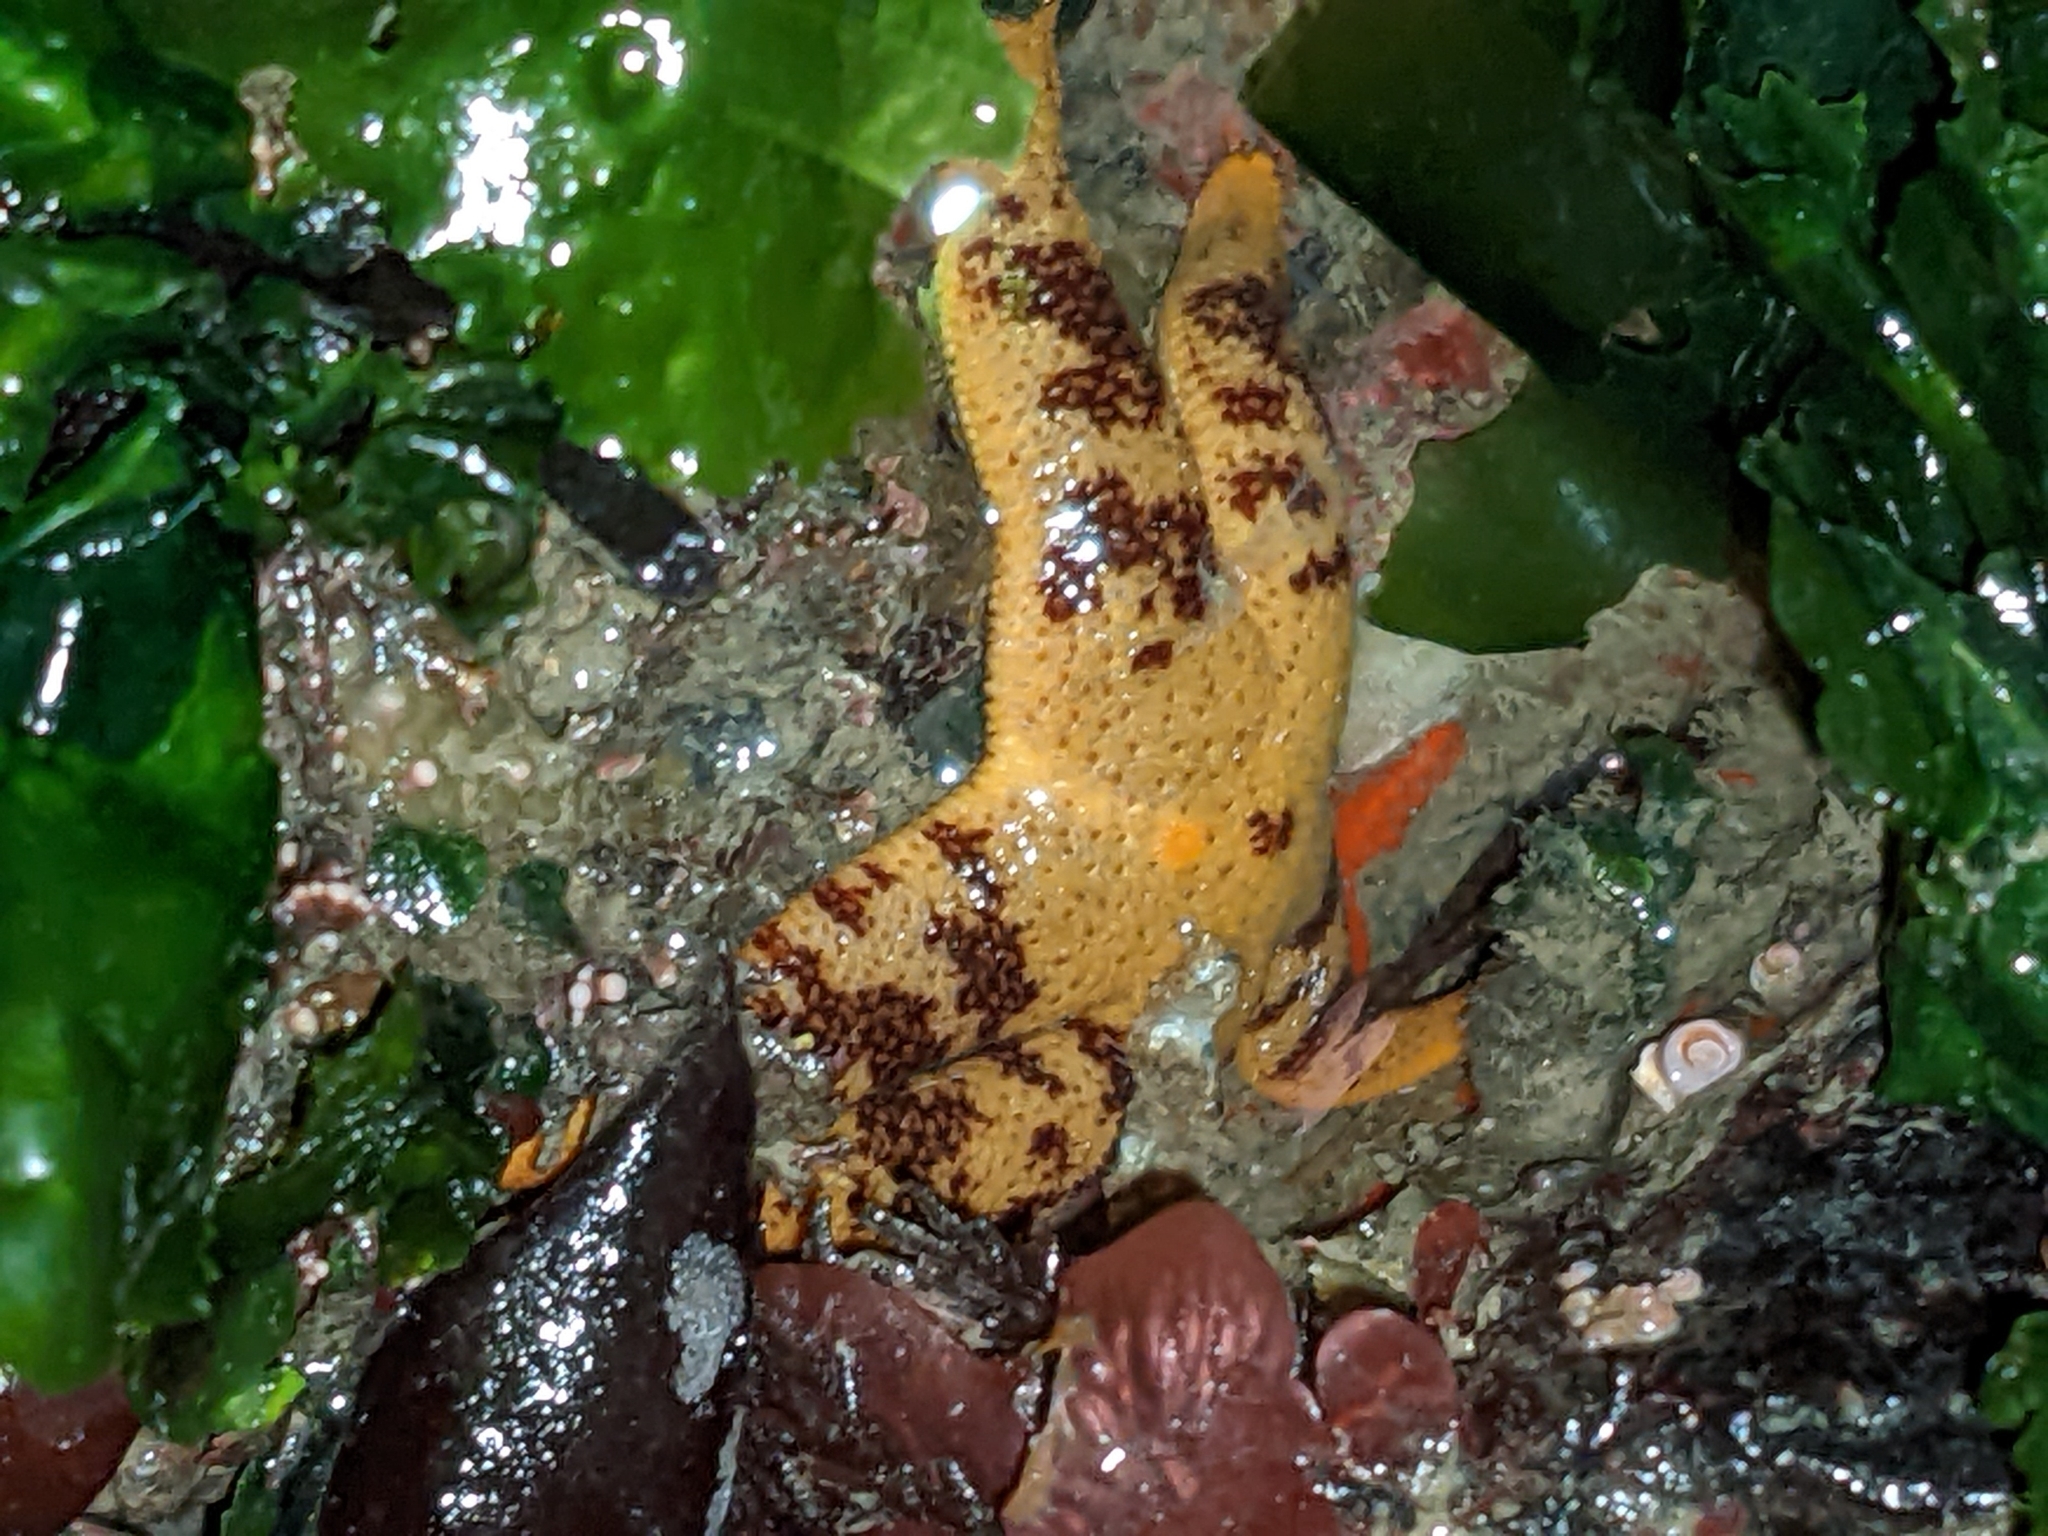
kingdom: Animalia
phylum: Echinodermata
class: Asteroidea
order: Spinulosida
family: Echinasteridae
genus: Henricia
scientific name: Henricia pumila
